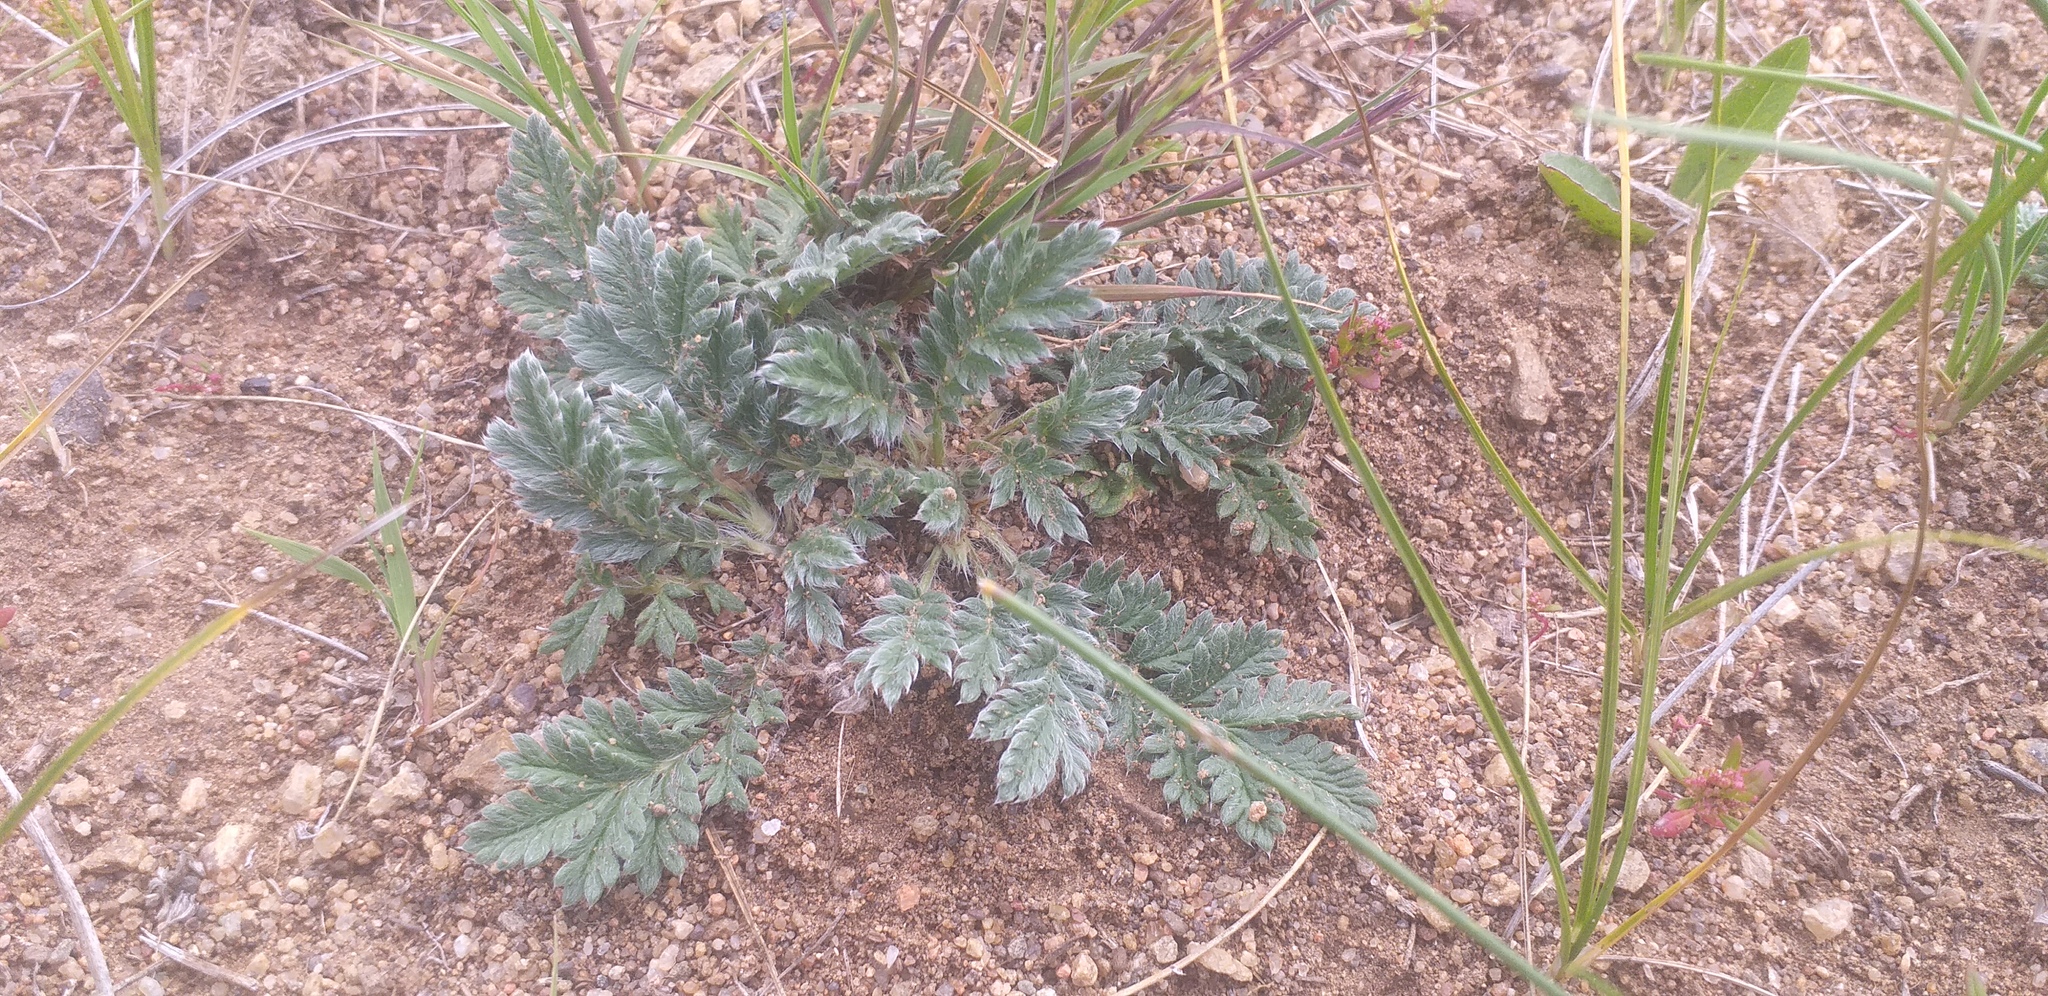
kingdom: Plantae
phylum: Tracheophyta
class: Magnoliopsida
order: Rosales
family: Rosaceae
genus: Potentilla
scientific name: Potentilla sericea
